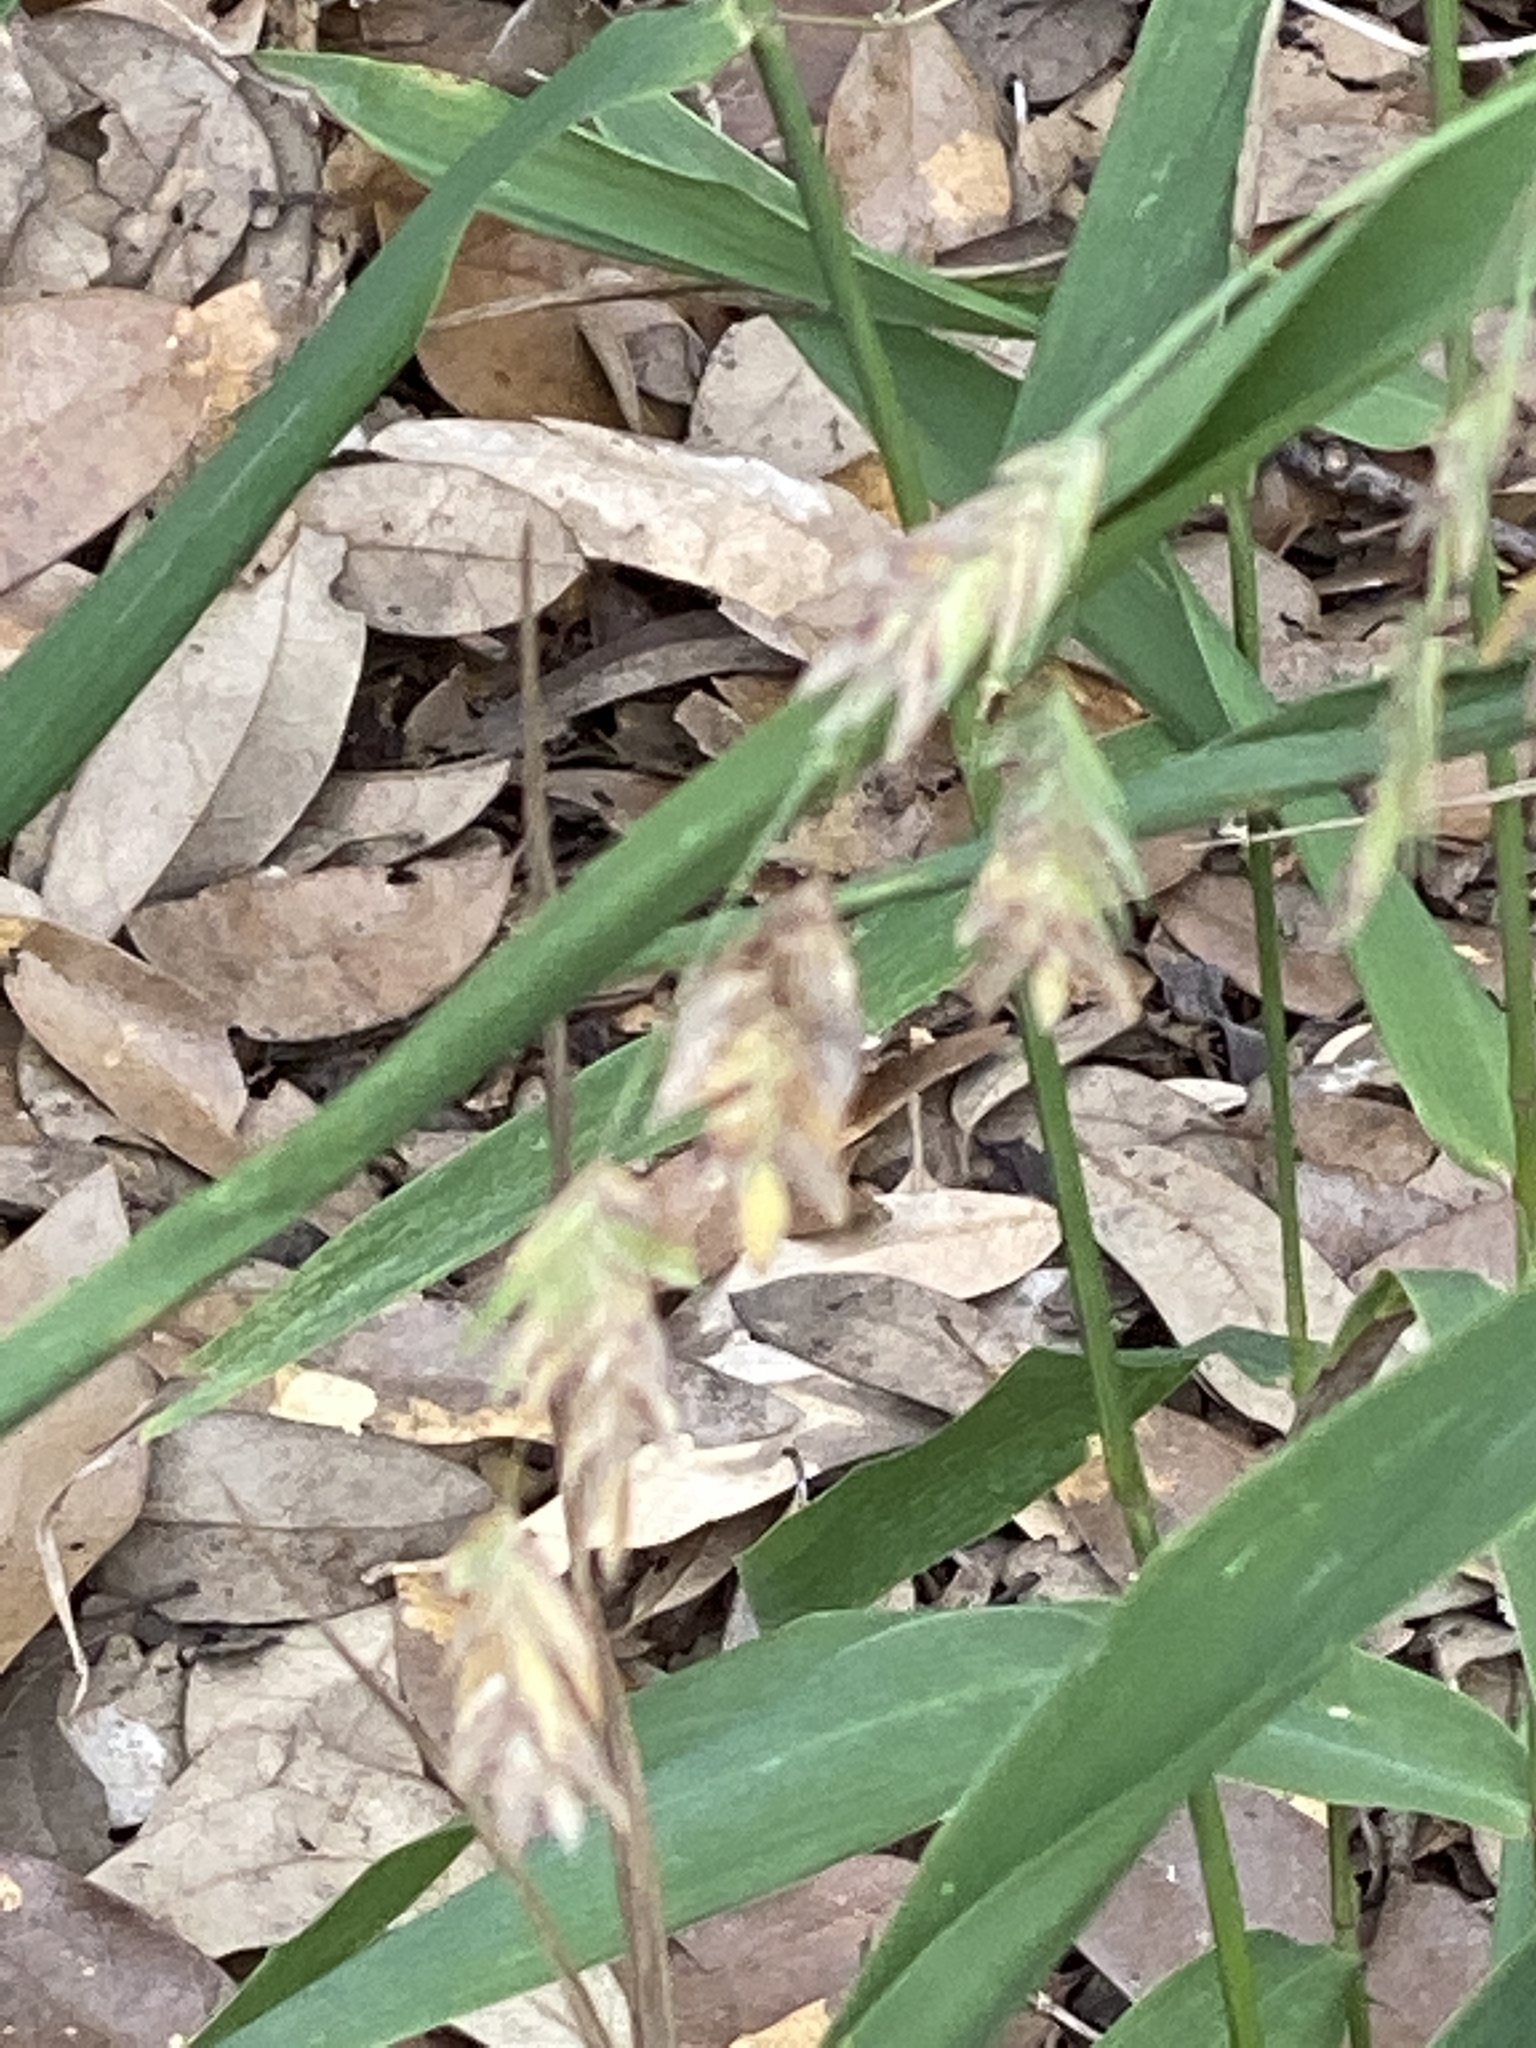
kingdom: Plantae
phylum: Tracheophyta
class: Liliopsida
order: Poales
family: Poaceae
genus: Chasmanthium
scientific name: Chasmanthium latifolium
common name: Broad-leaved chasmanthium
